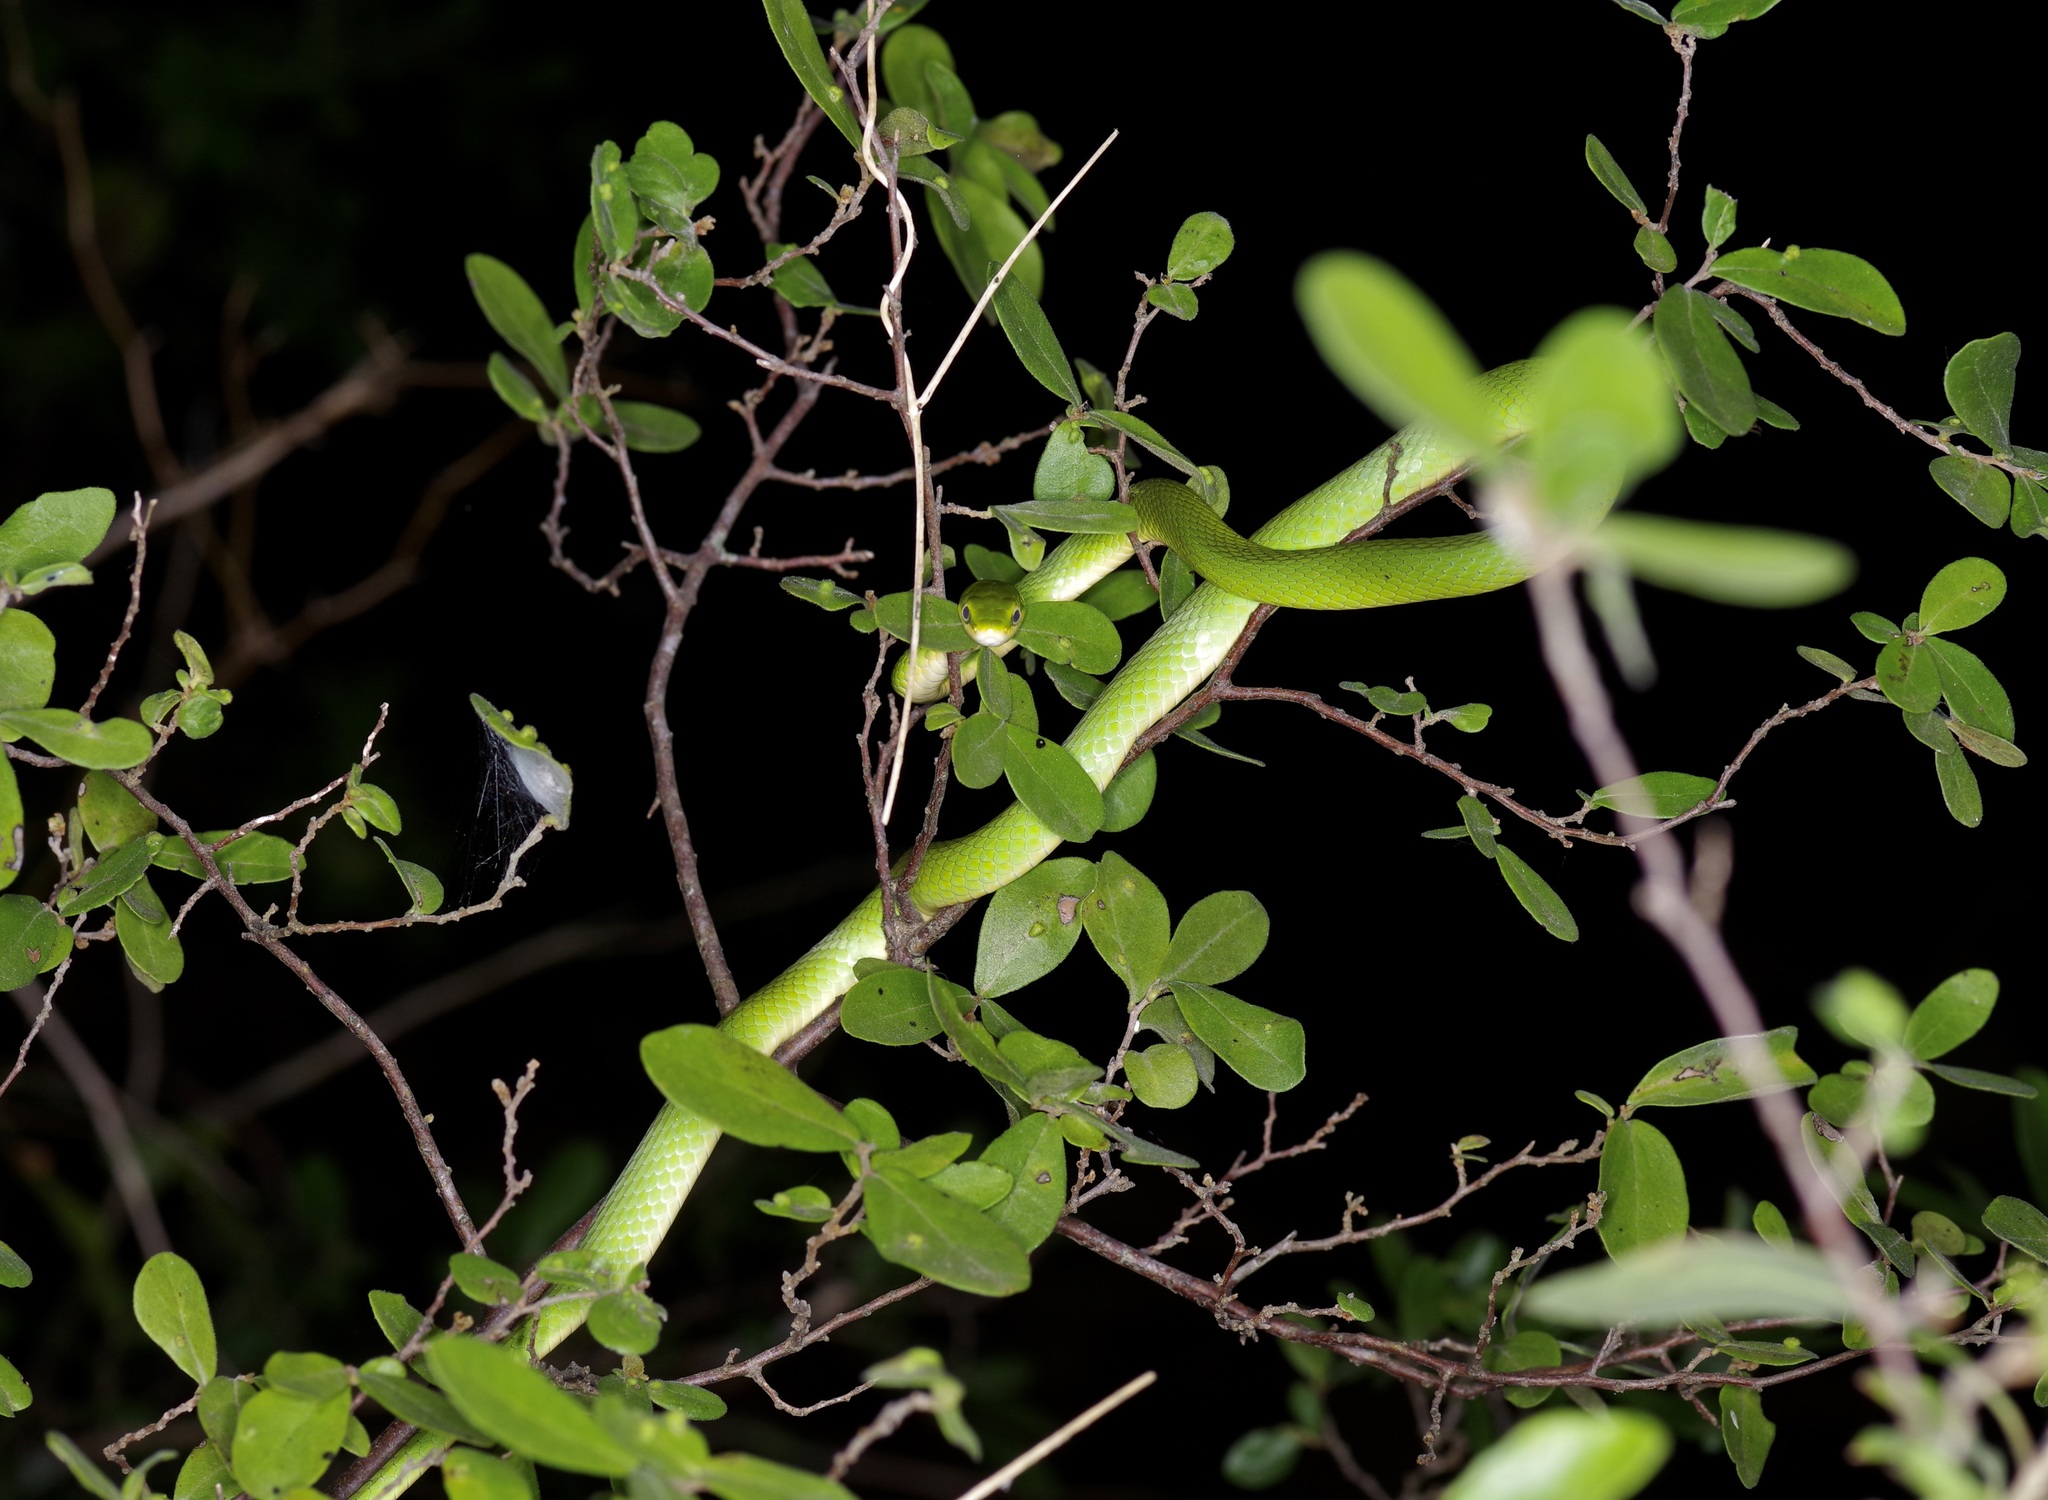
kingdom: Animalia
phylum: Chordata
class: Squamata
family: Colubridae
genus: Opheodrys
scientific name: Opheodrys aestivus
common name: Rough greensnake
